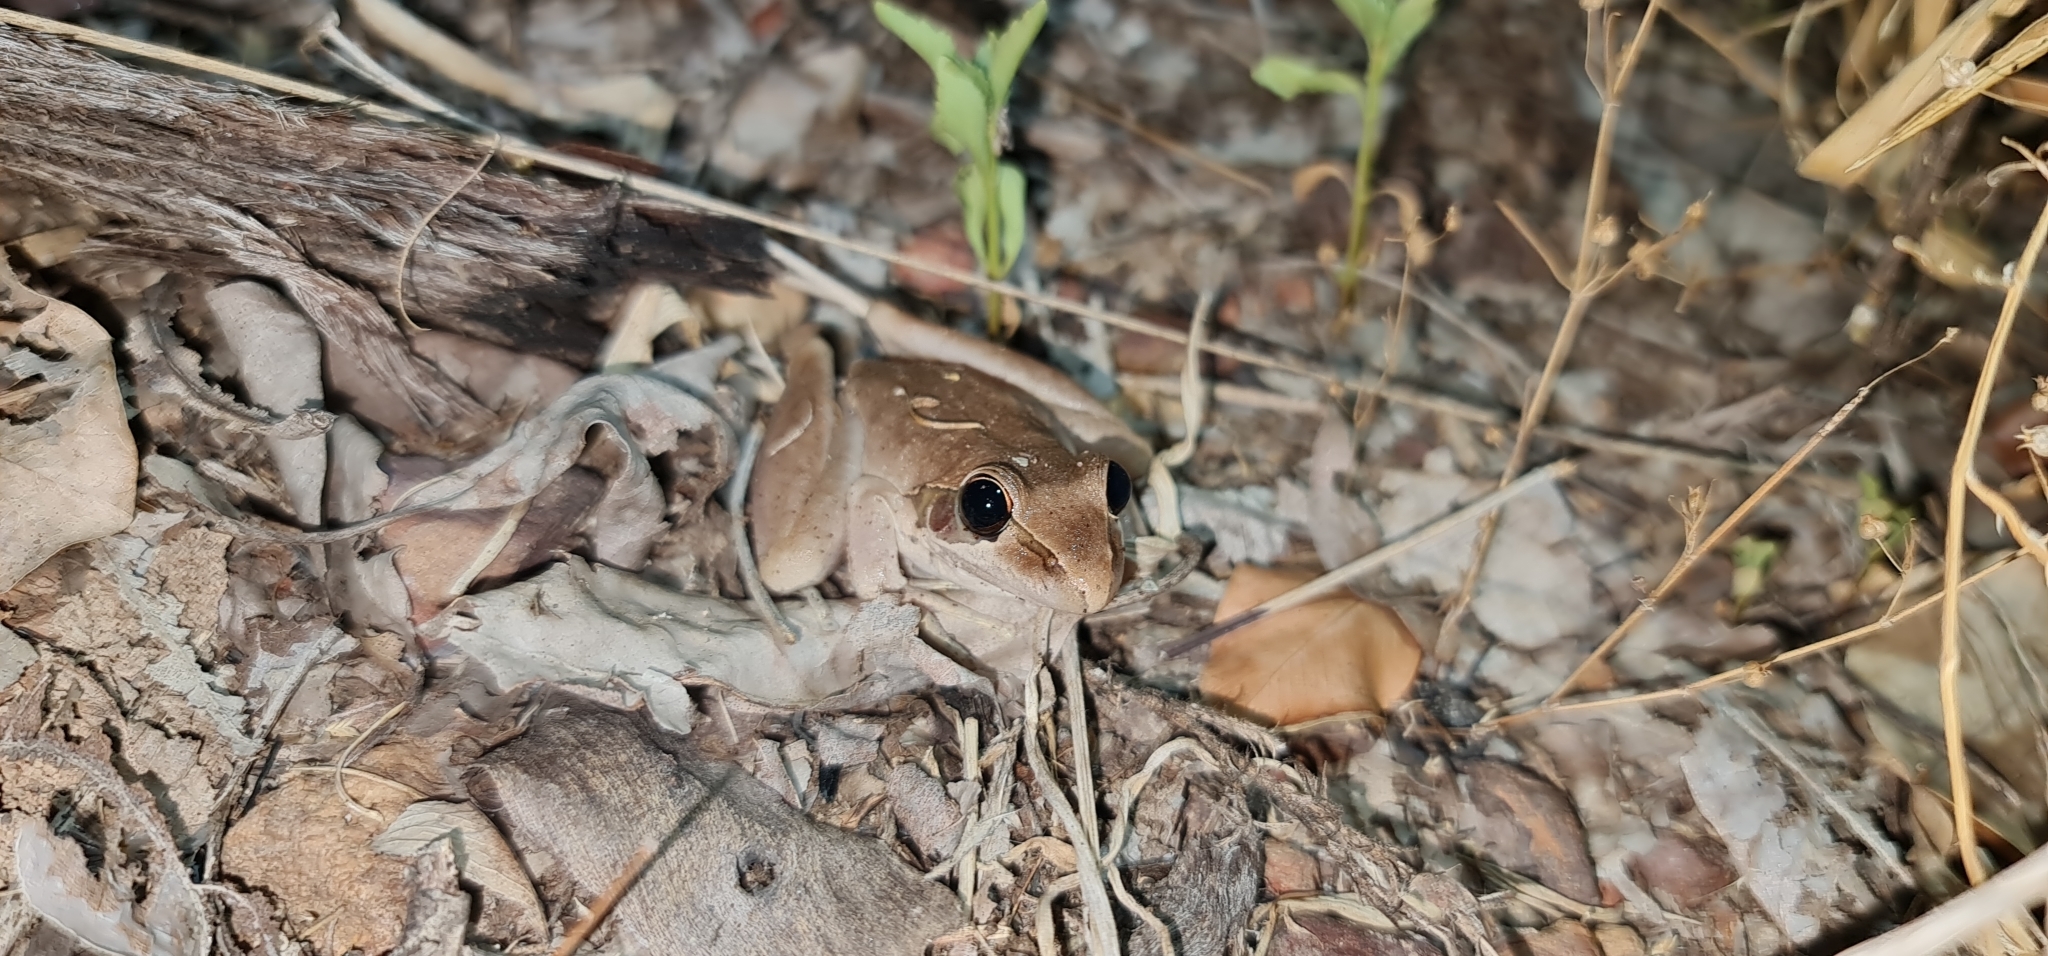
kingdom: Animalia
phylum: Chordata
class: Amphibia
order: Anura
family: Pelodryadidae
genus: Litoria
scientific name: Litoria watjulumensis
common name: Wotjulum frog
